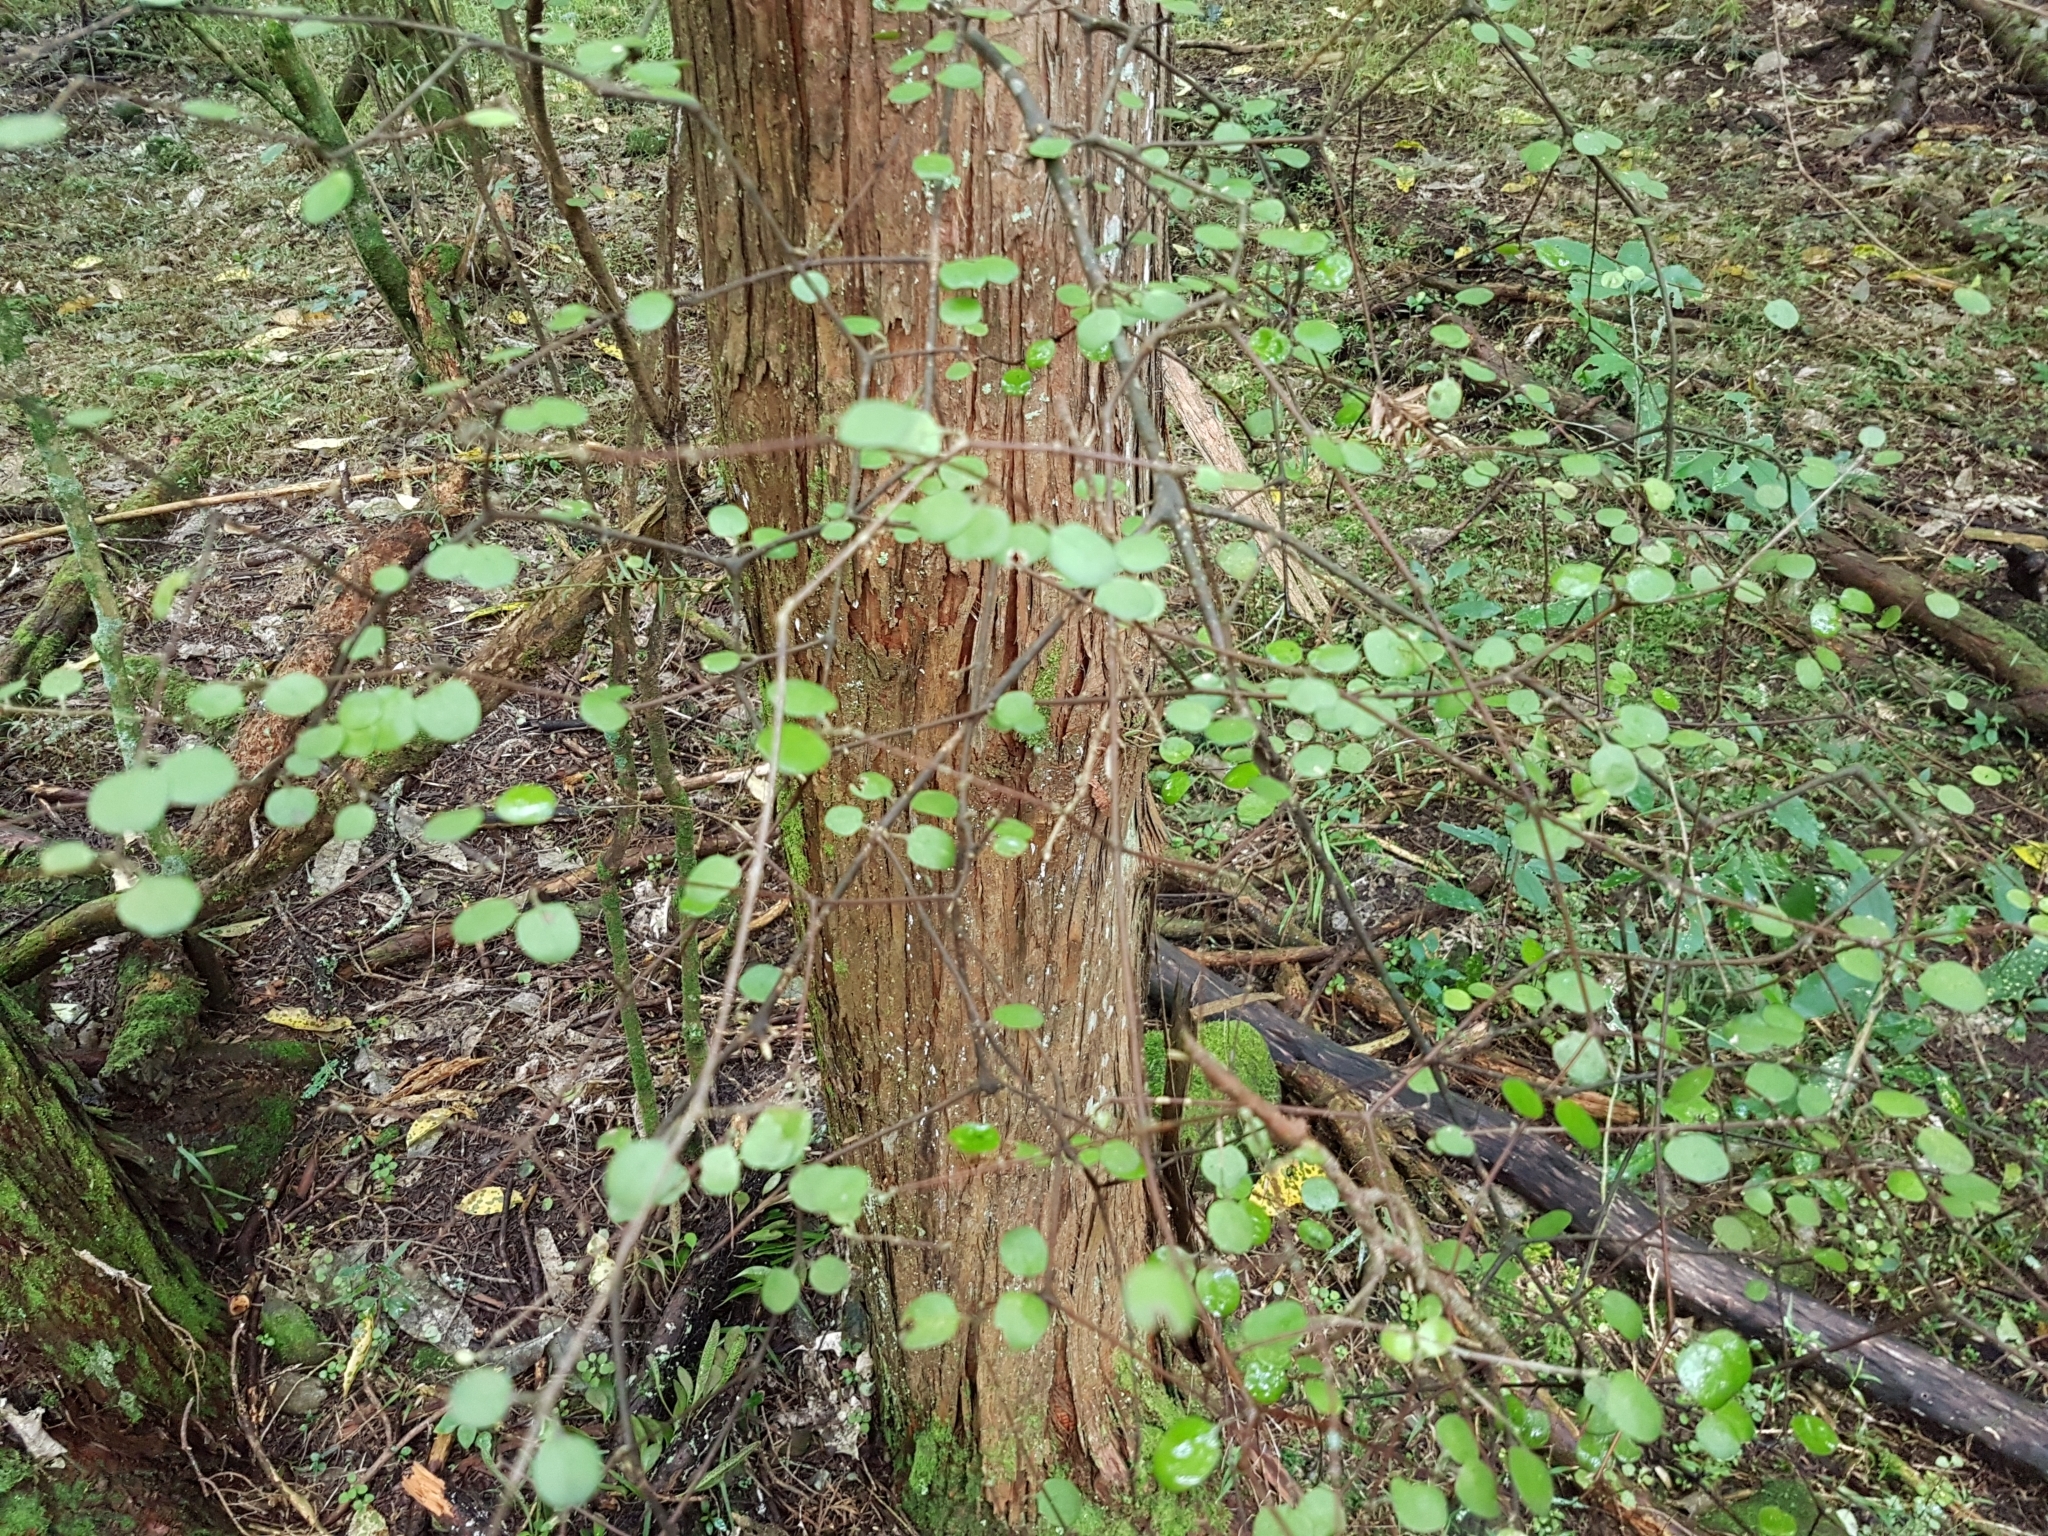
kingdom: Plantae
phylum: Tracheophyta
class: Magnoliopsida
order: Gentianales
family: Rubiaceae
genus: Coprosma
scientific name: Coprosma crassifolia
